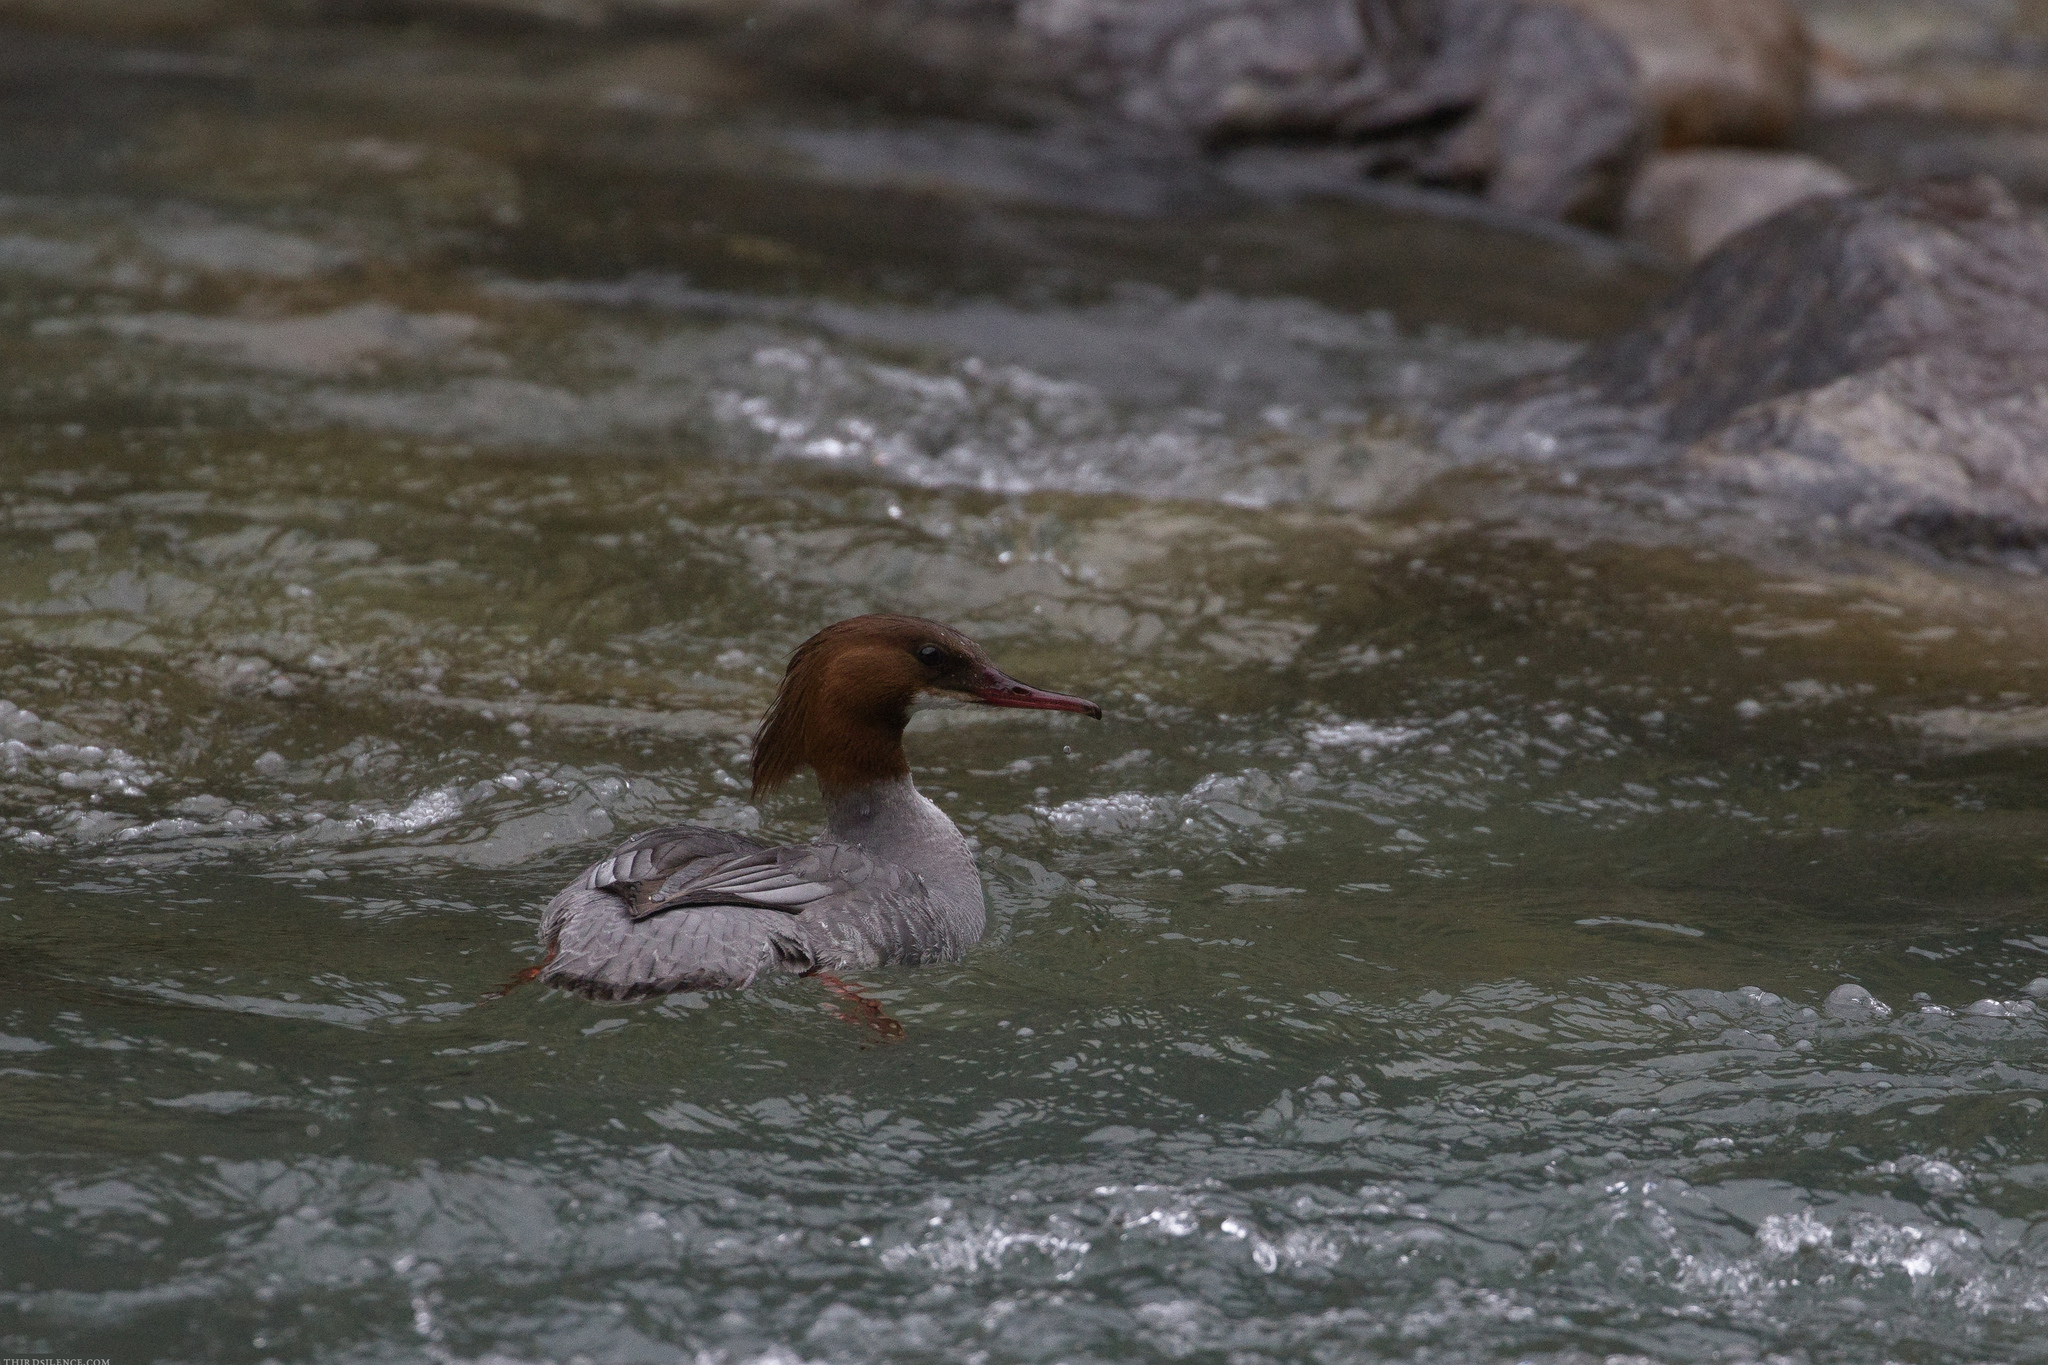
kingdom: Animalia
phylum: Chordata
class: Aves
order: Anseriformes
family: Anatidae
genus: Mergus
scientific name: Mergus merganser
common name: Common merganser
